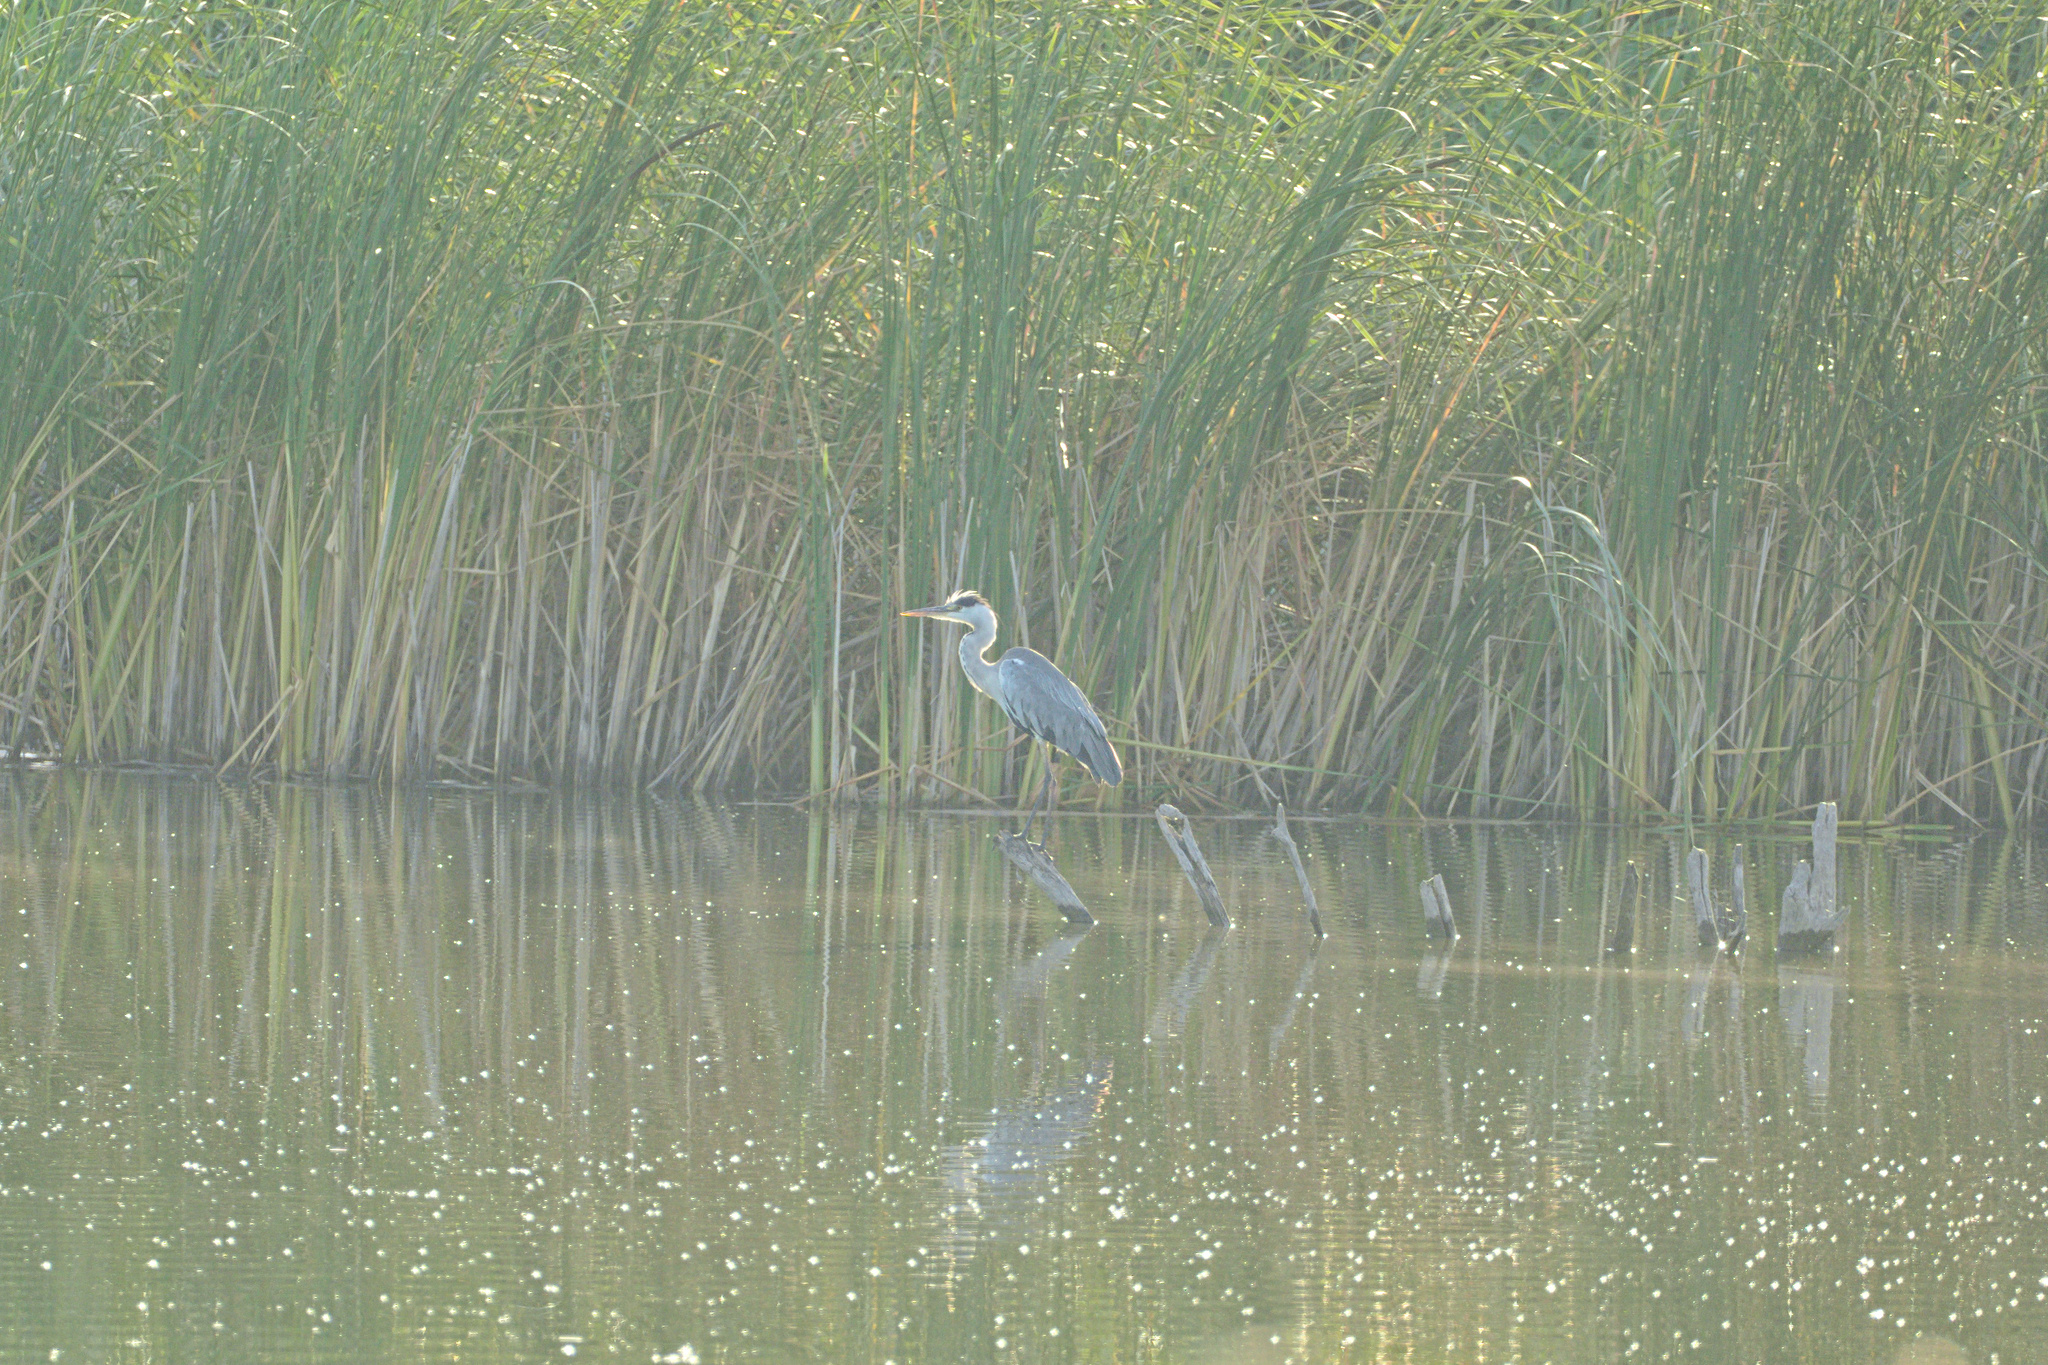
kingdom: Animalia
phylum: Chordata
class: Aves
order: Pelecaniformes
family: Ardeidae
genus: Ardea
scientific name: Ardea cinerea
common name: Grey heron
